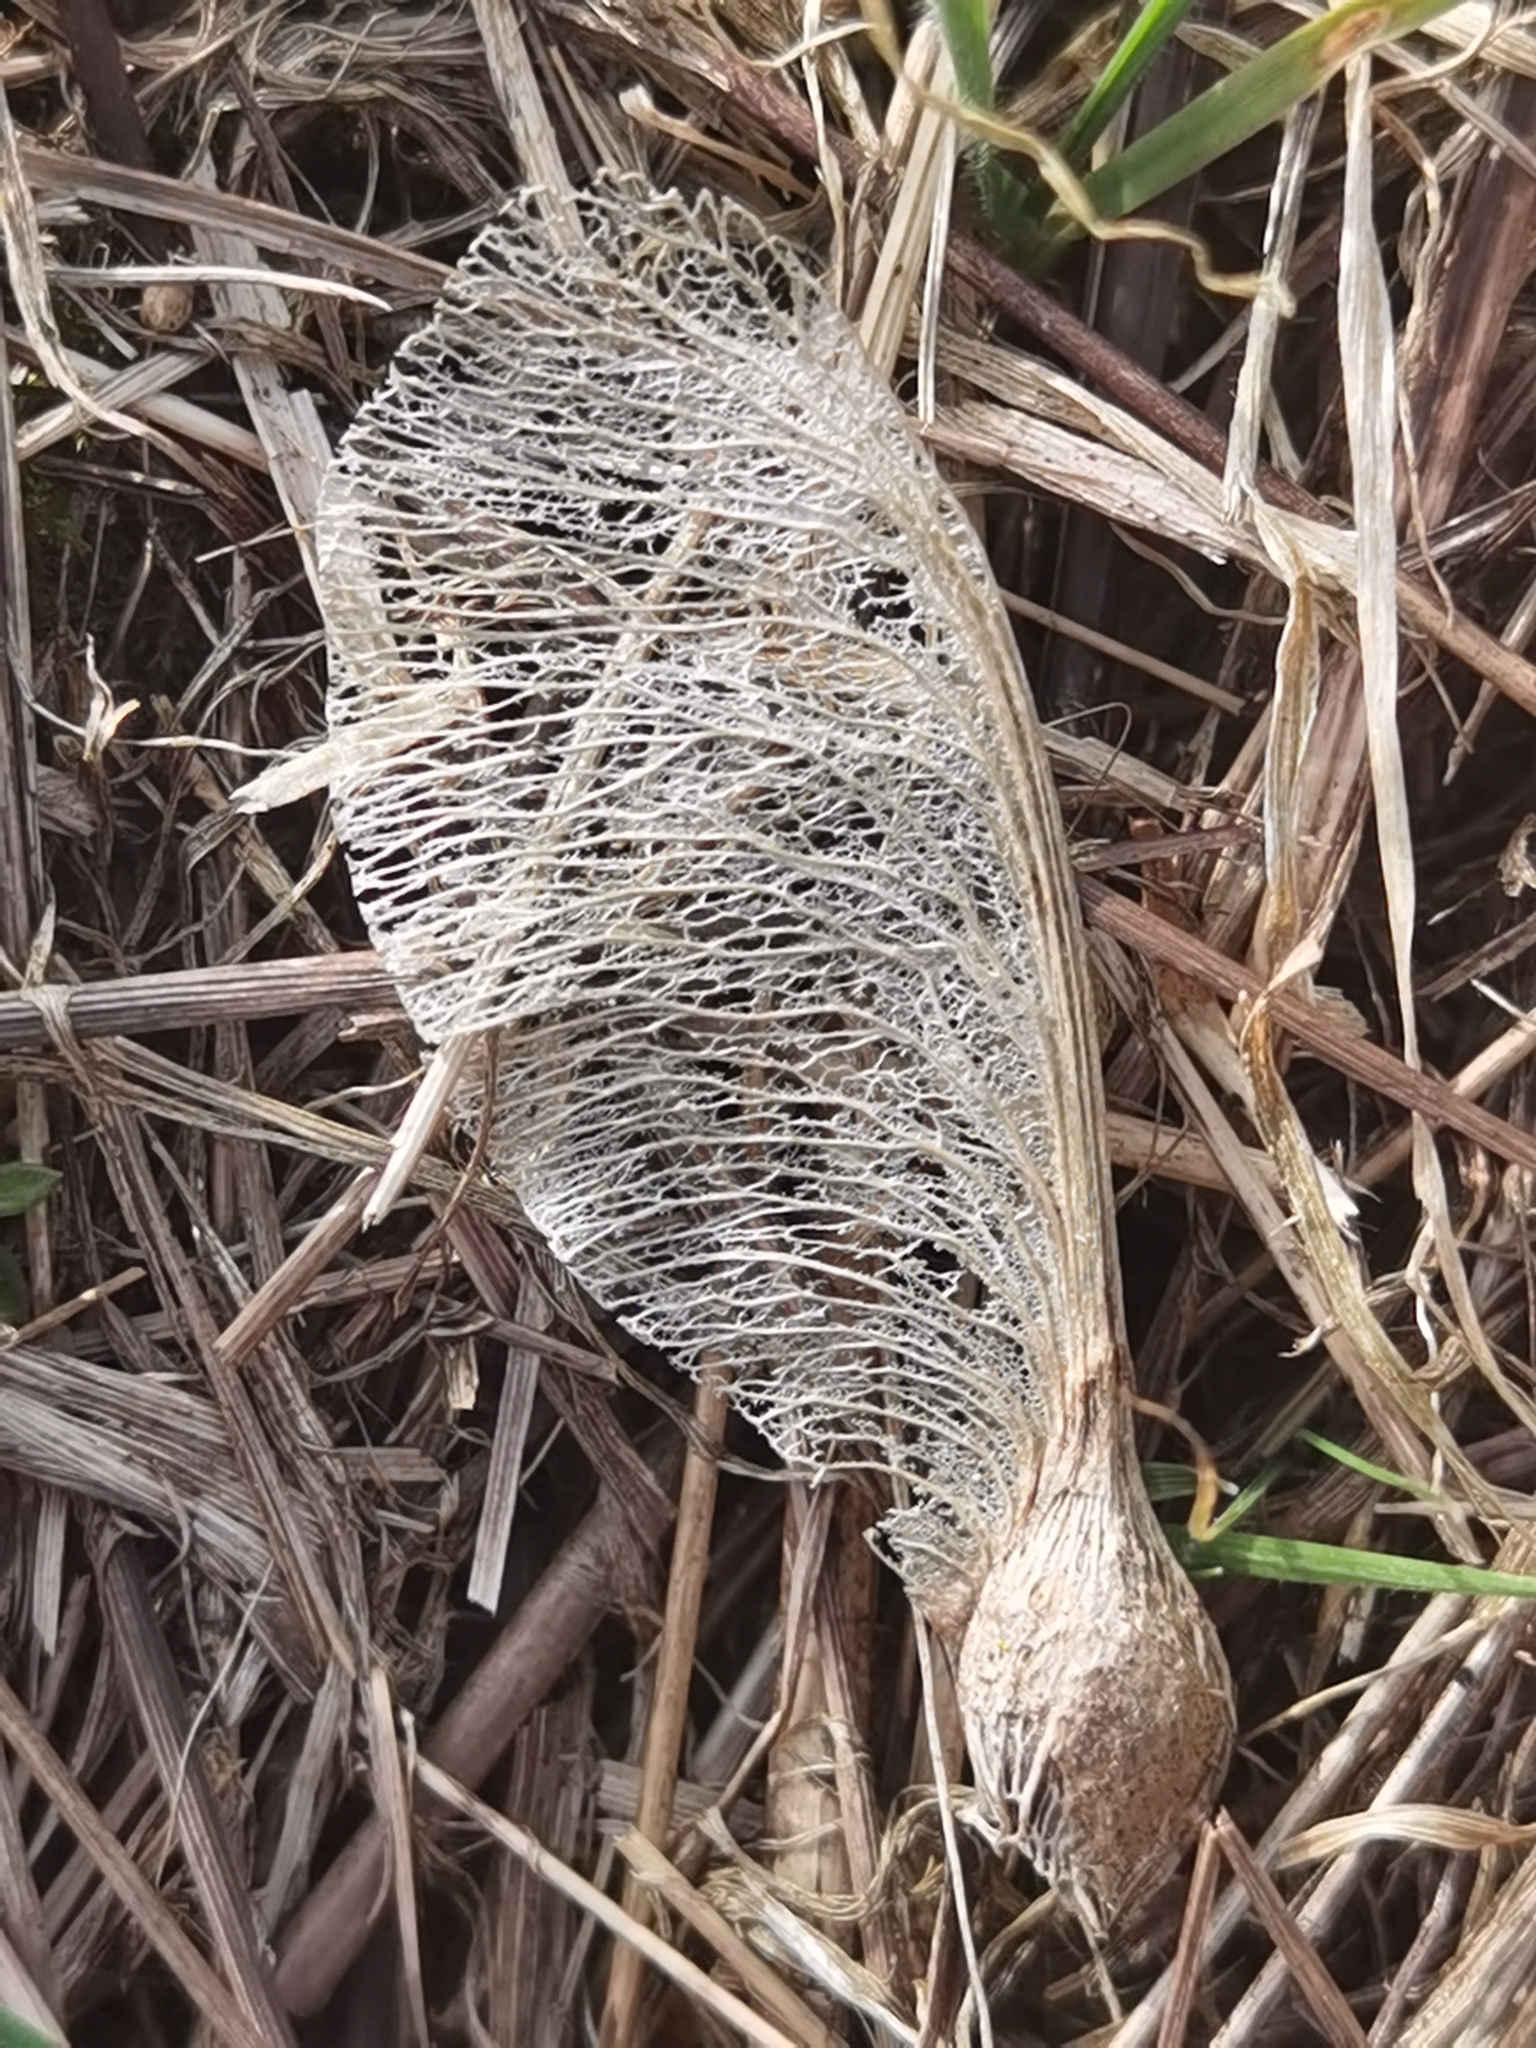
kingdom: Plantae
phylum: Tracheophyta
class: Magnoliopsida
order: Sapindales
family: Sapindaceae
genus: Acer
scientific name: Acer pseudoplatanus
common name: Sycamore
